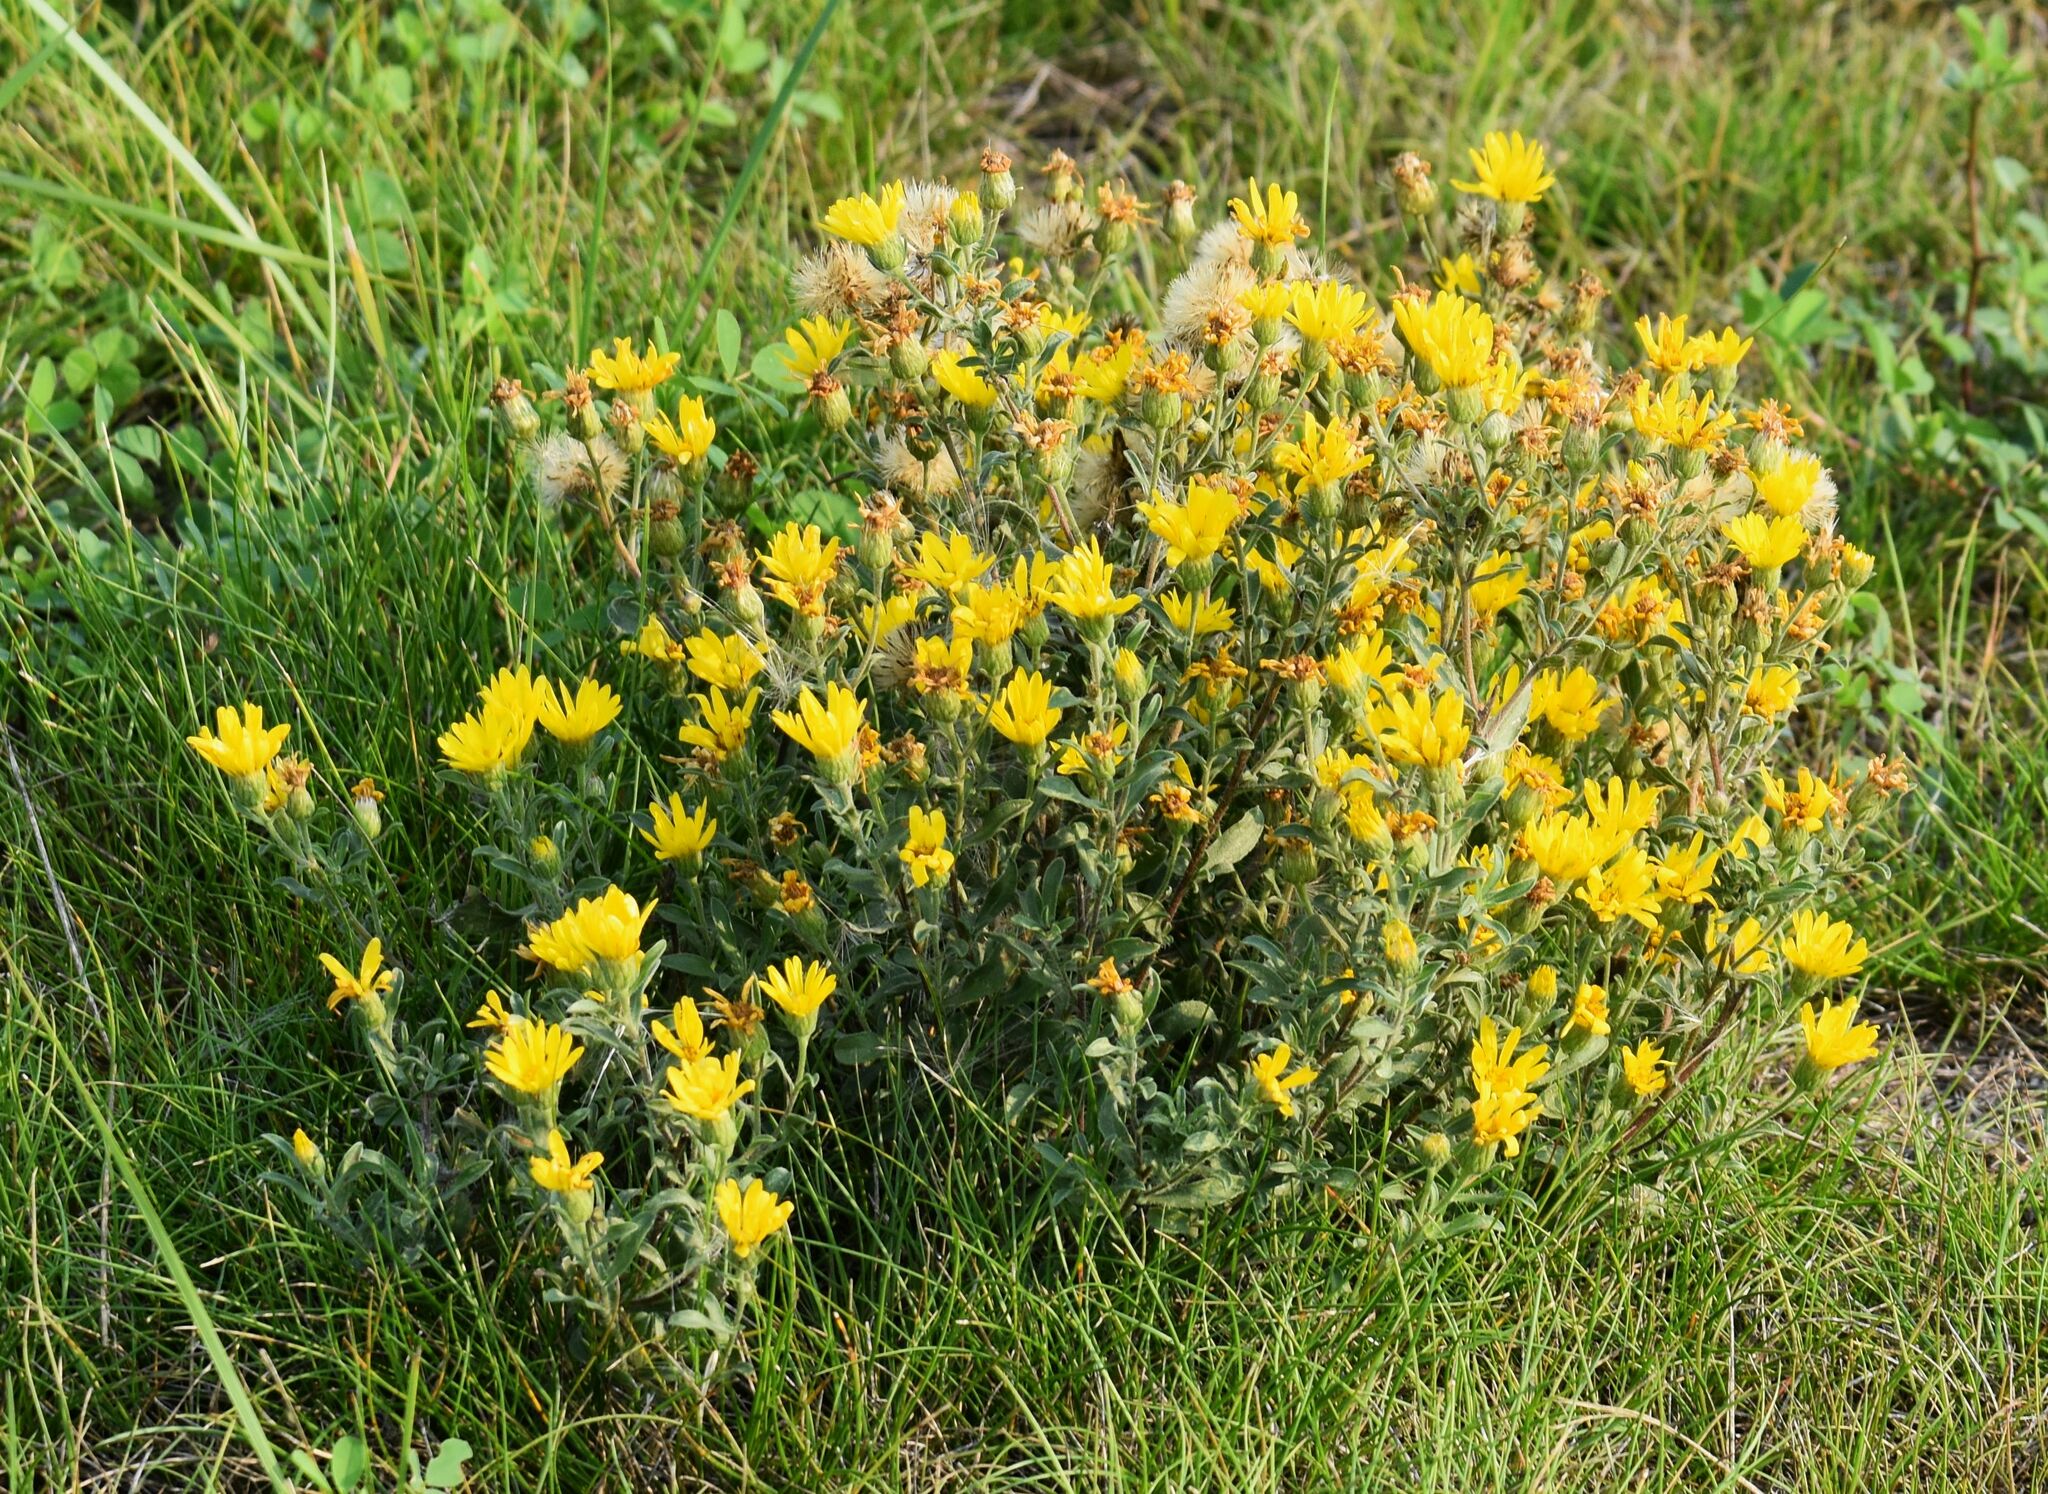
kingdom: Plantae
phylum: Tracheophyta
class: Magnoliopsida
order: Asterales
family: Asteraceae
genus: Heterotheca
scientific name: Heterotheca villosa
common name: Hairy false goldenaster
